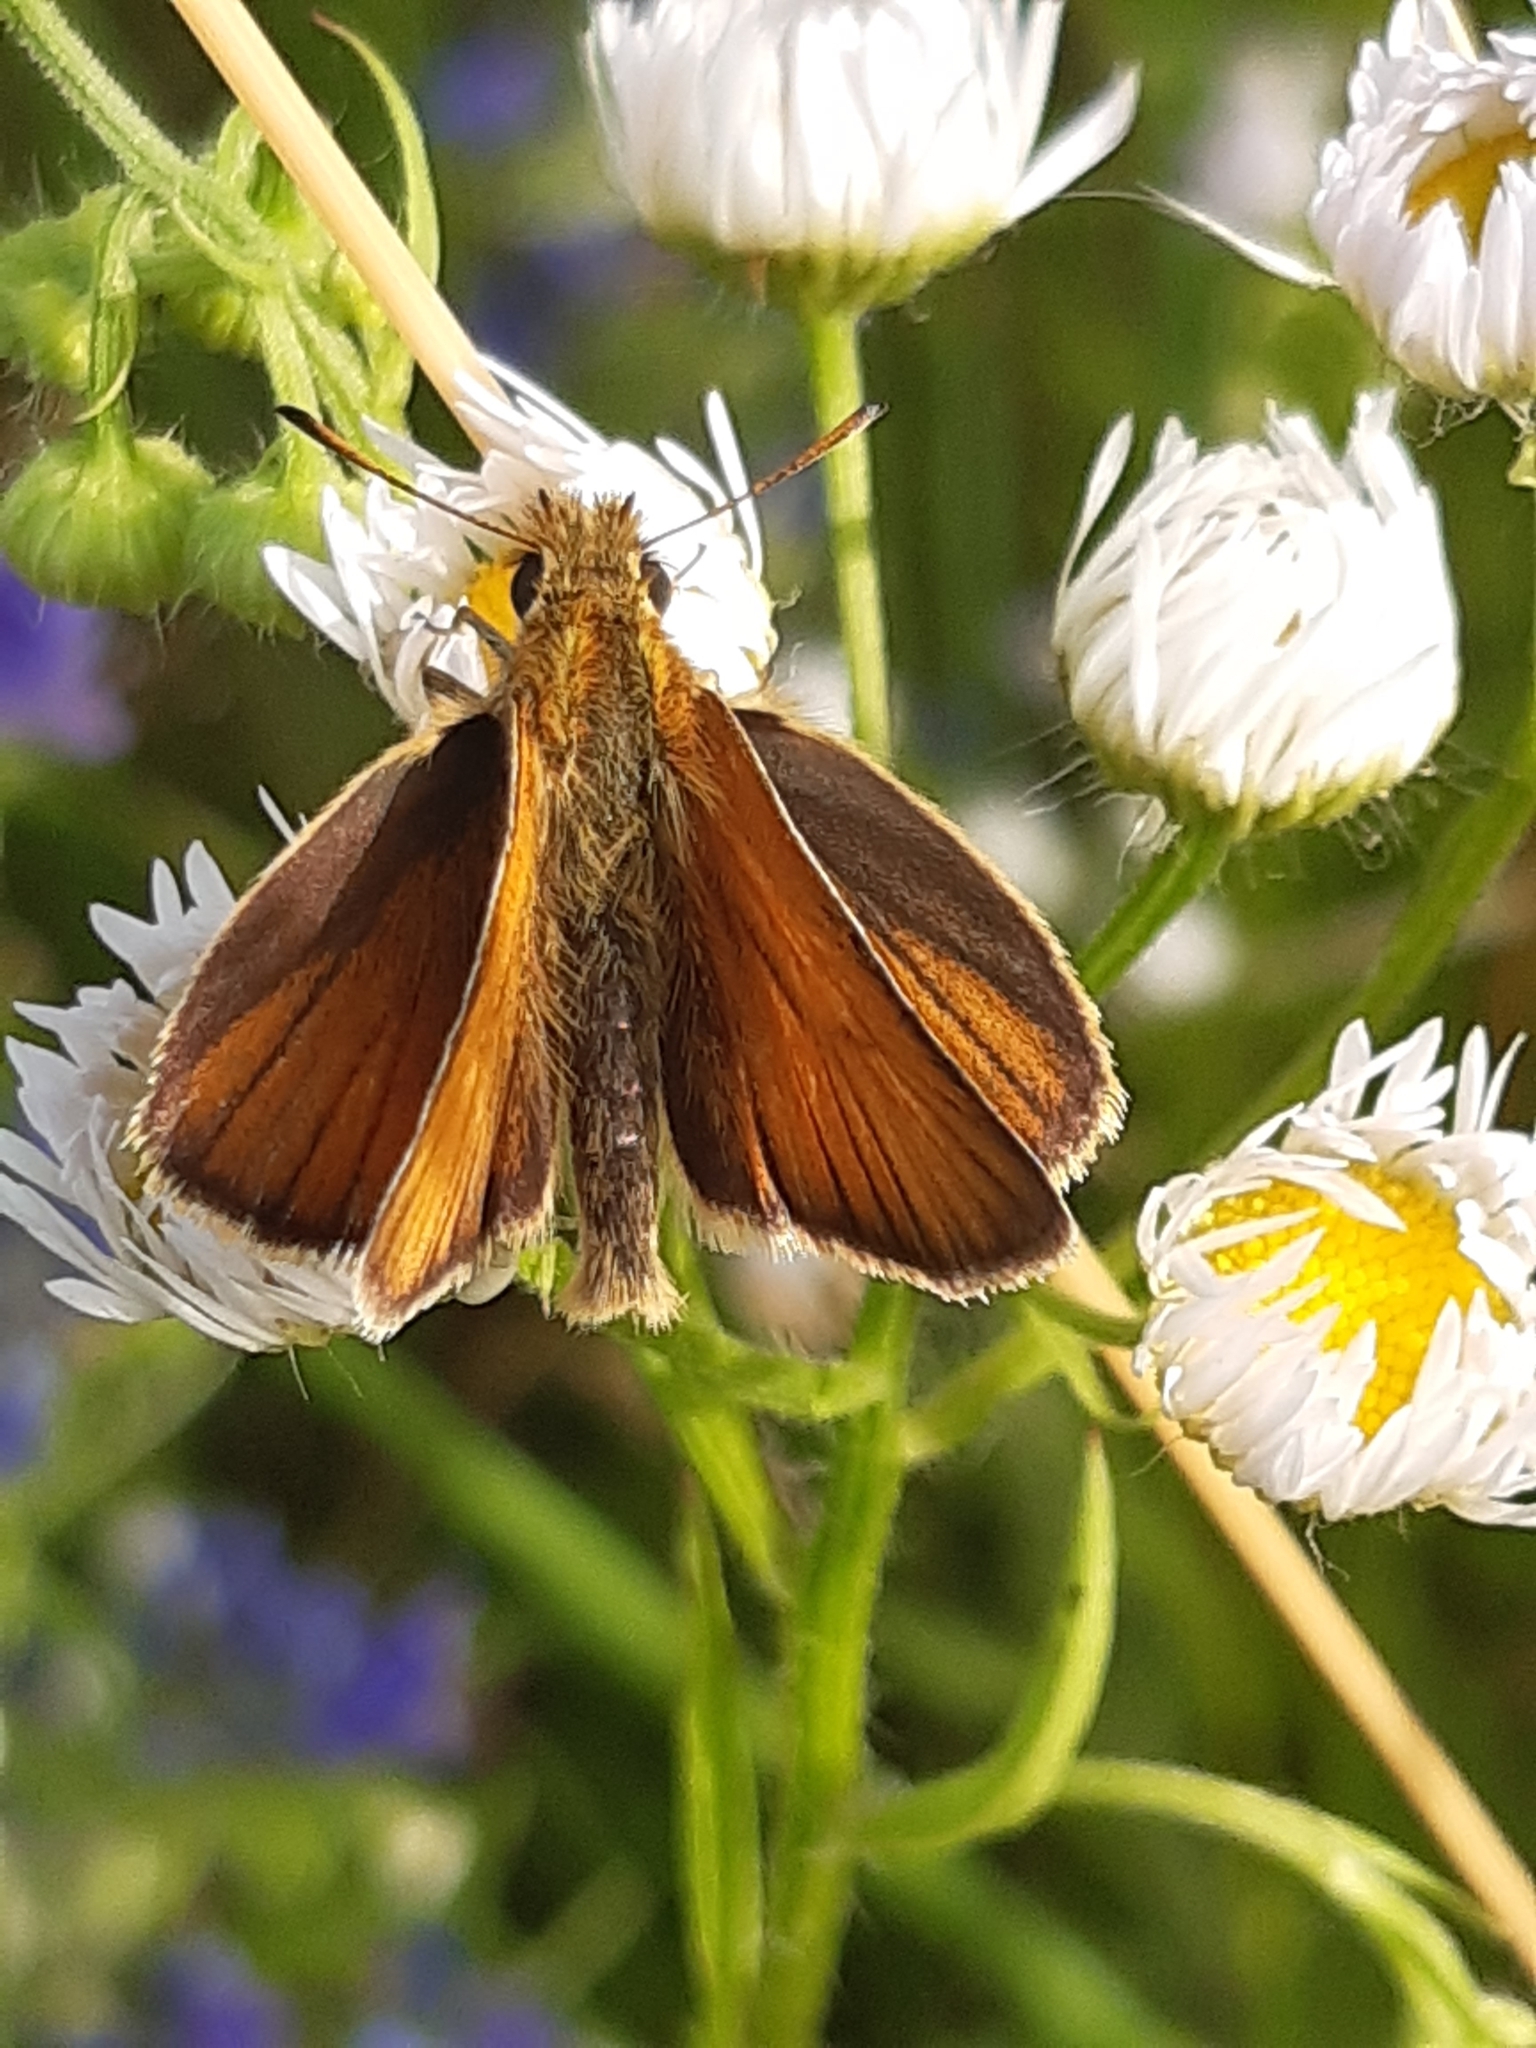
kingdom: Animalia
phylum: Arthropoda
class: Insecta
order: Lepidoptera
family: Hesperiidae
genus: Thymelicus
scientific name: Thymelicus lineola
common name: Essex skipper
